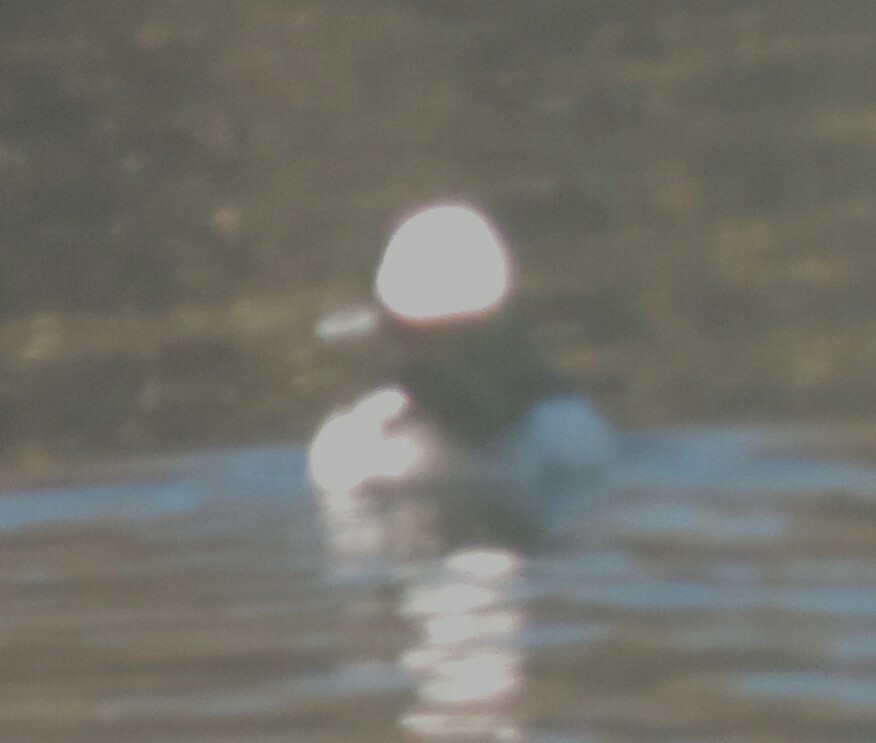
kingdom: Animalia
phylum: Chordata
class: Aves
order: Anseriformes
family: Anatidae
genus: Bucephala
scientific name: Bucephala albeola
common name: Bufflehead
